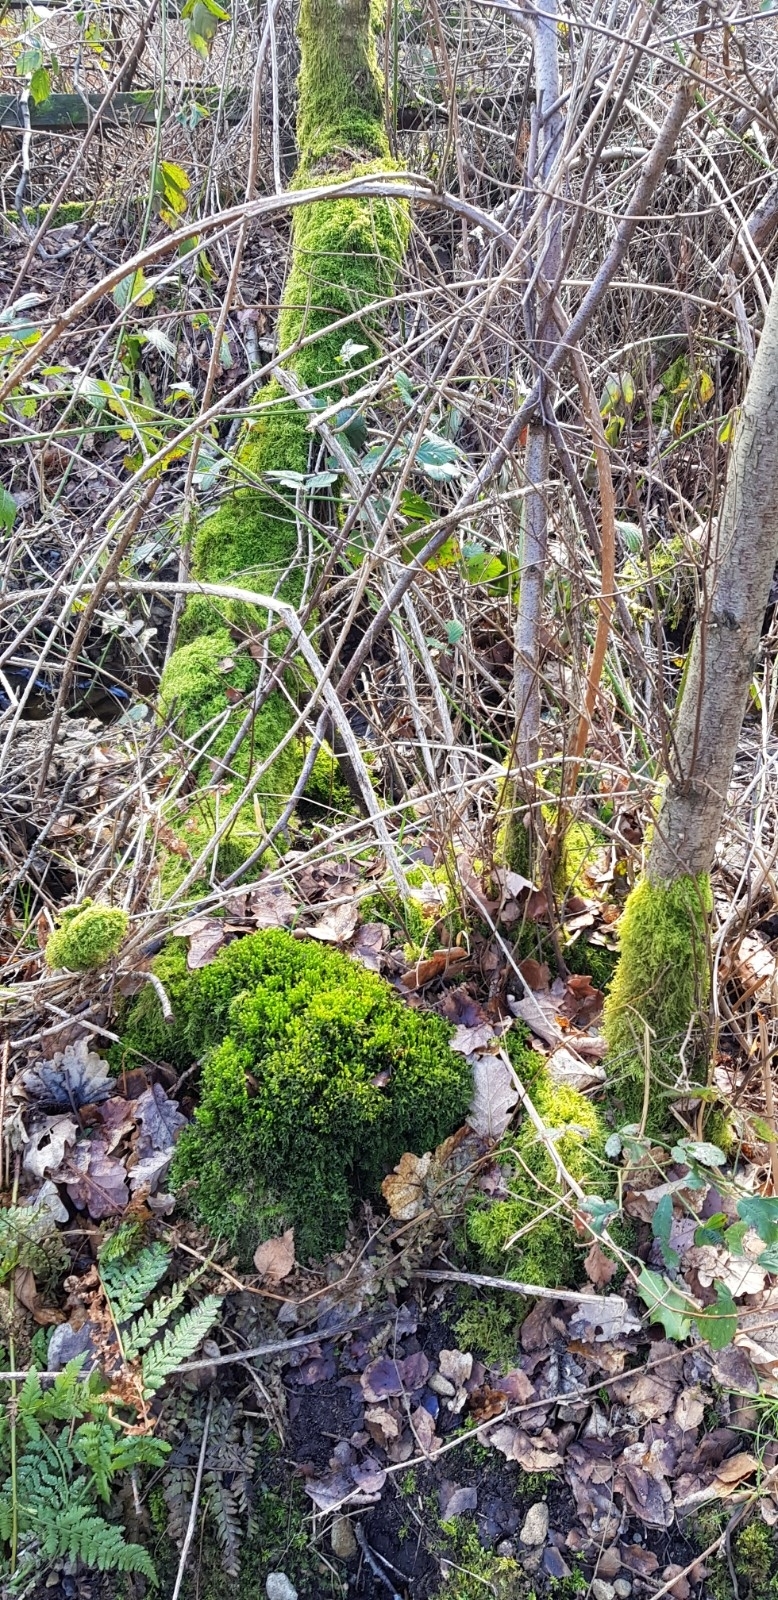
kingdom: Plantae
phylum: Bryophyta
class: Bryopsida
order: Bryales
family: Mniaceae
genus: Mnium
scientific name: Mnium hornum
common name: Swan's-neck leafy moss
